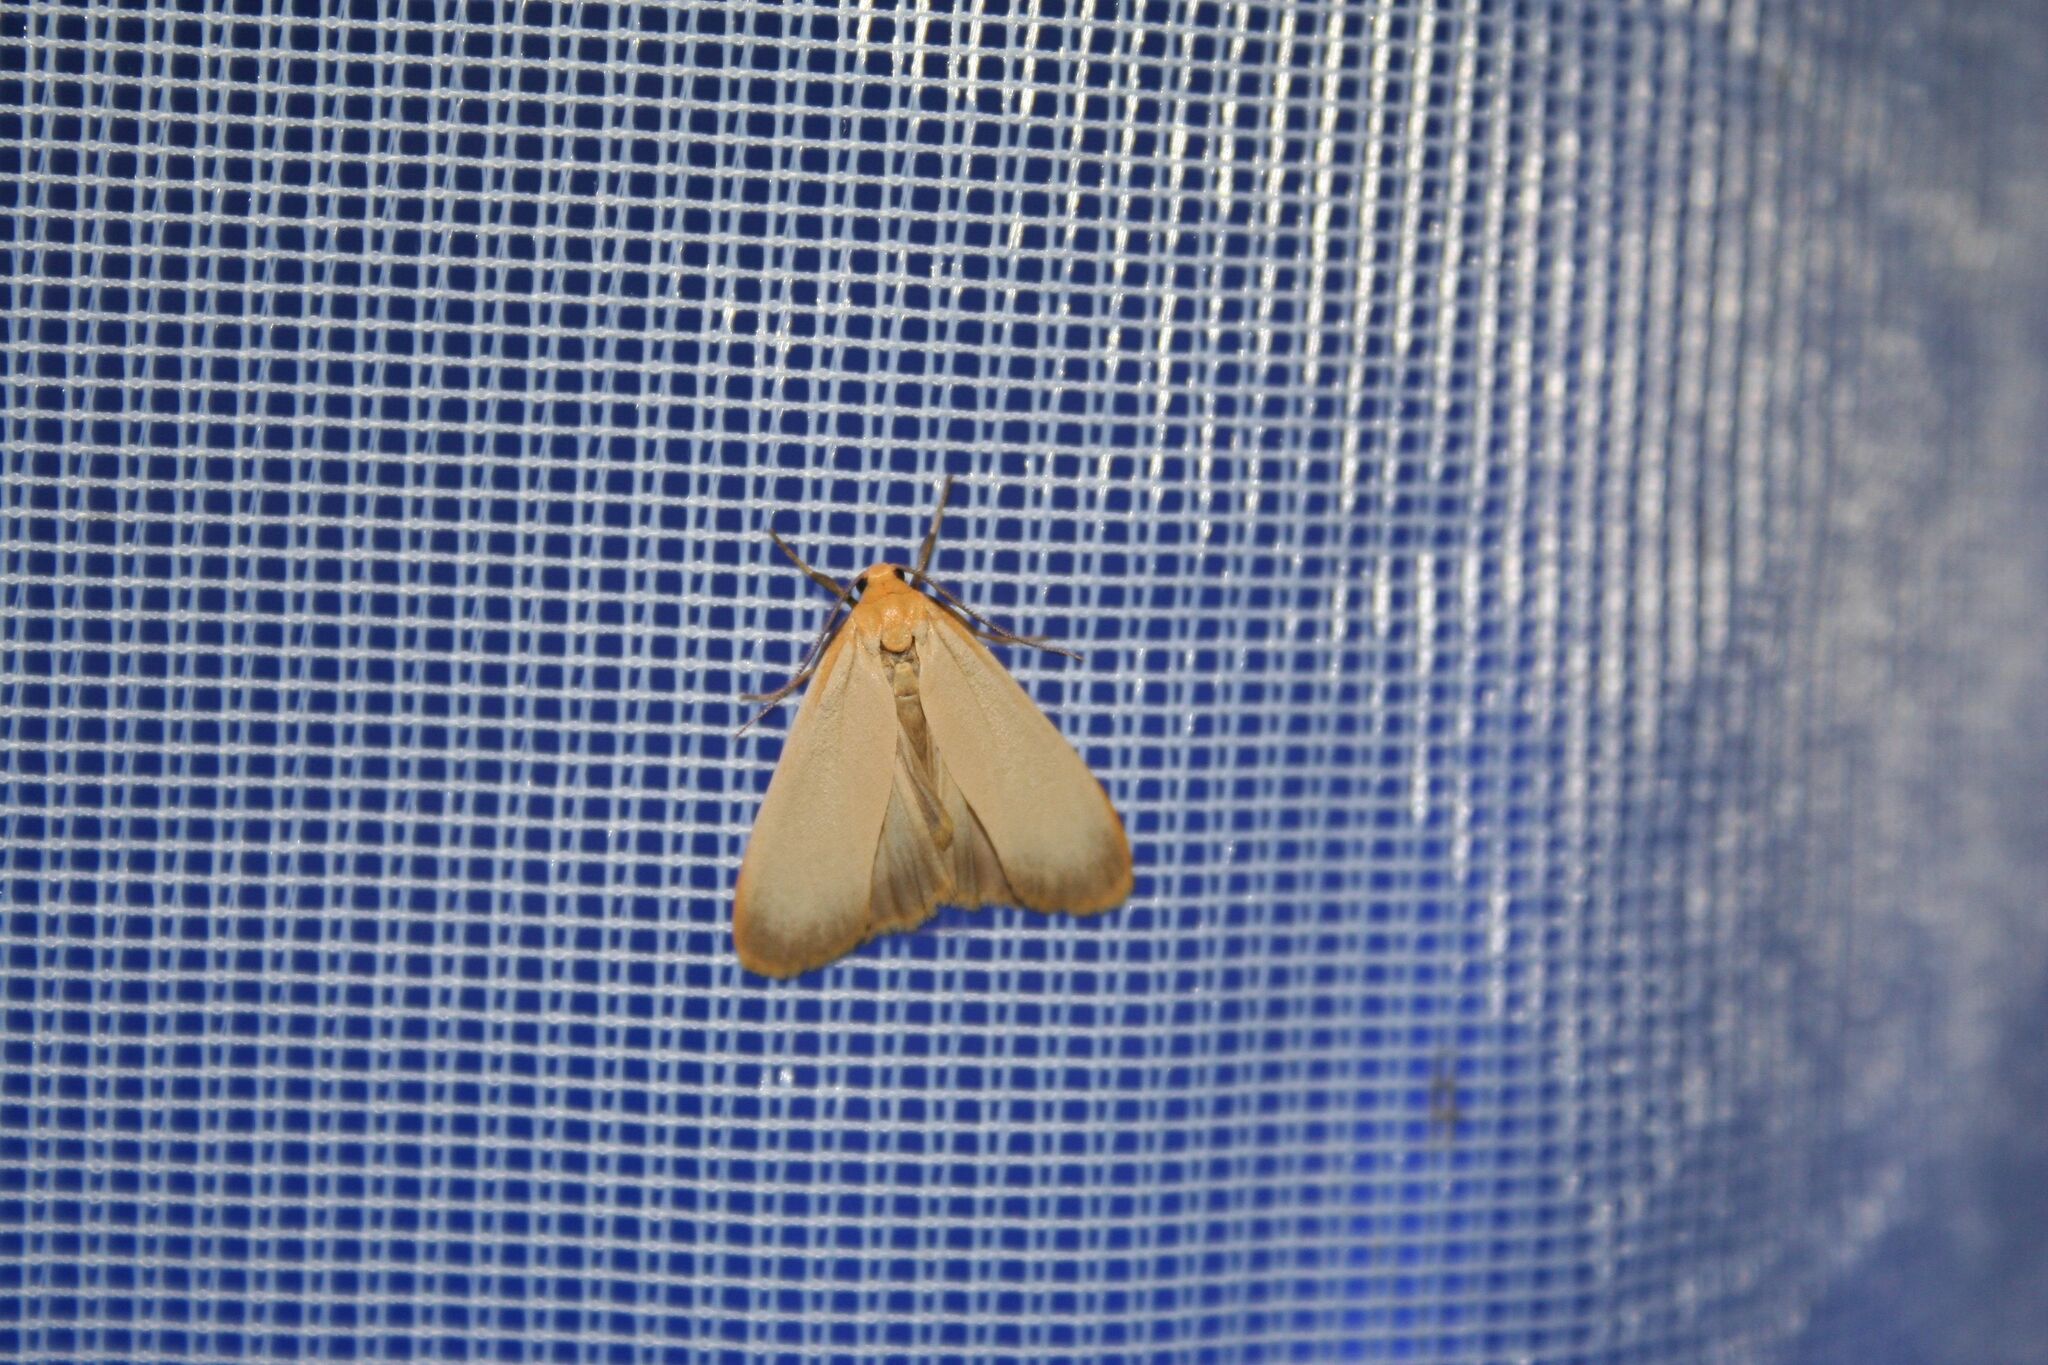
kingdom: Animalia
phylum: Arthropoda
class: Insecta
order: Lepidoptera
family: Erebidae
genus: Katha
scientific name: Katha depressa
